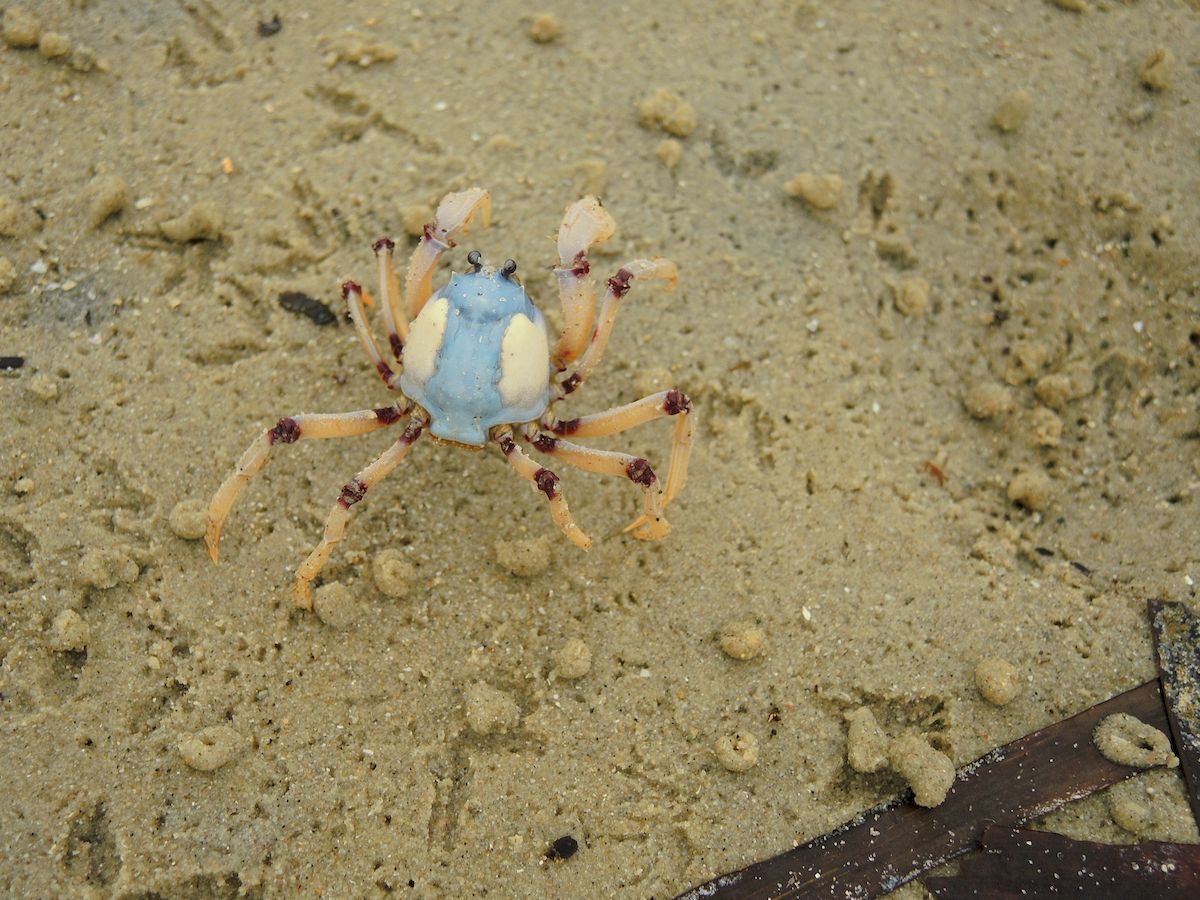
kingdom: Animalia
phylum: Arthropoda
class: Malacostraca
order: Decapoda
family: Mictyridae
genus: Mictyris
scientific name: Mictyris longicarpus
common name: Light-blue soldier crab
